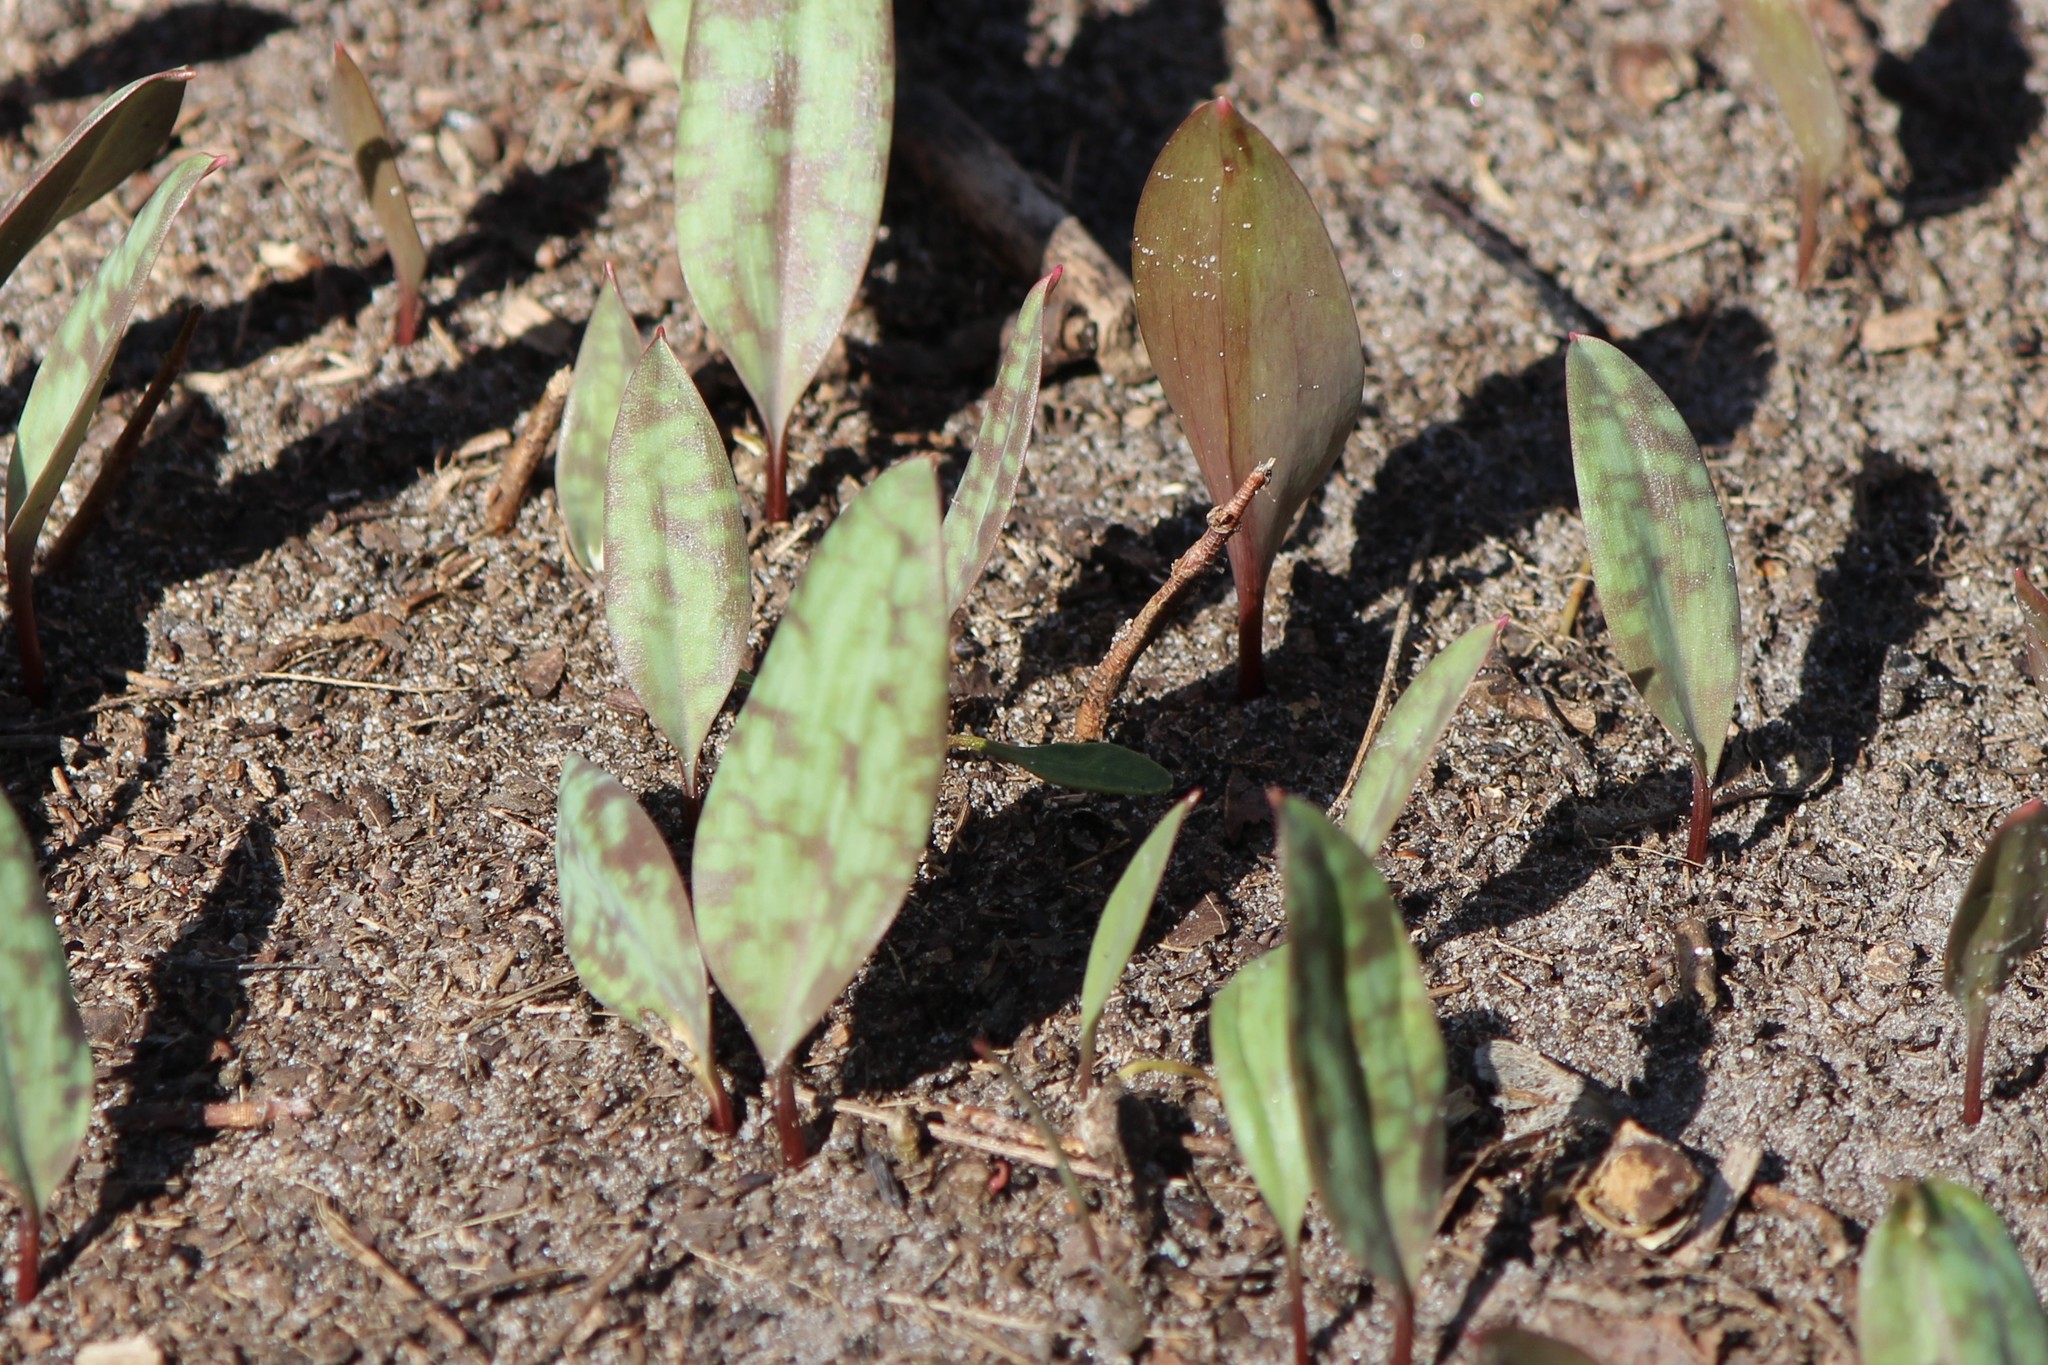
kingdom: Plantae
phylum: Tracheophyta
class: Liliopsida
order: Liliales
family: Liliaceae
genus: Erythronium
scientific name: Erythronium americanum
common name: Yellow adder's-tongue
